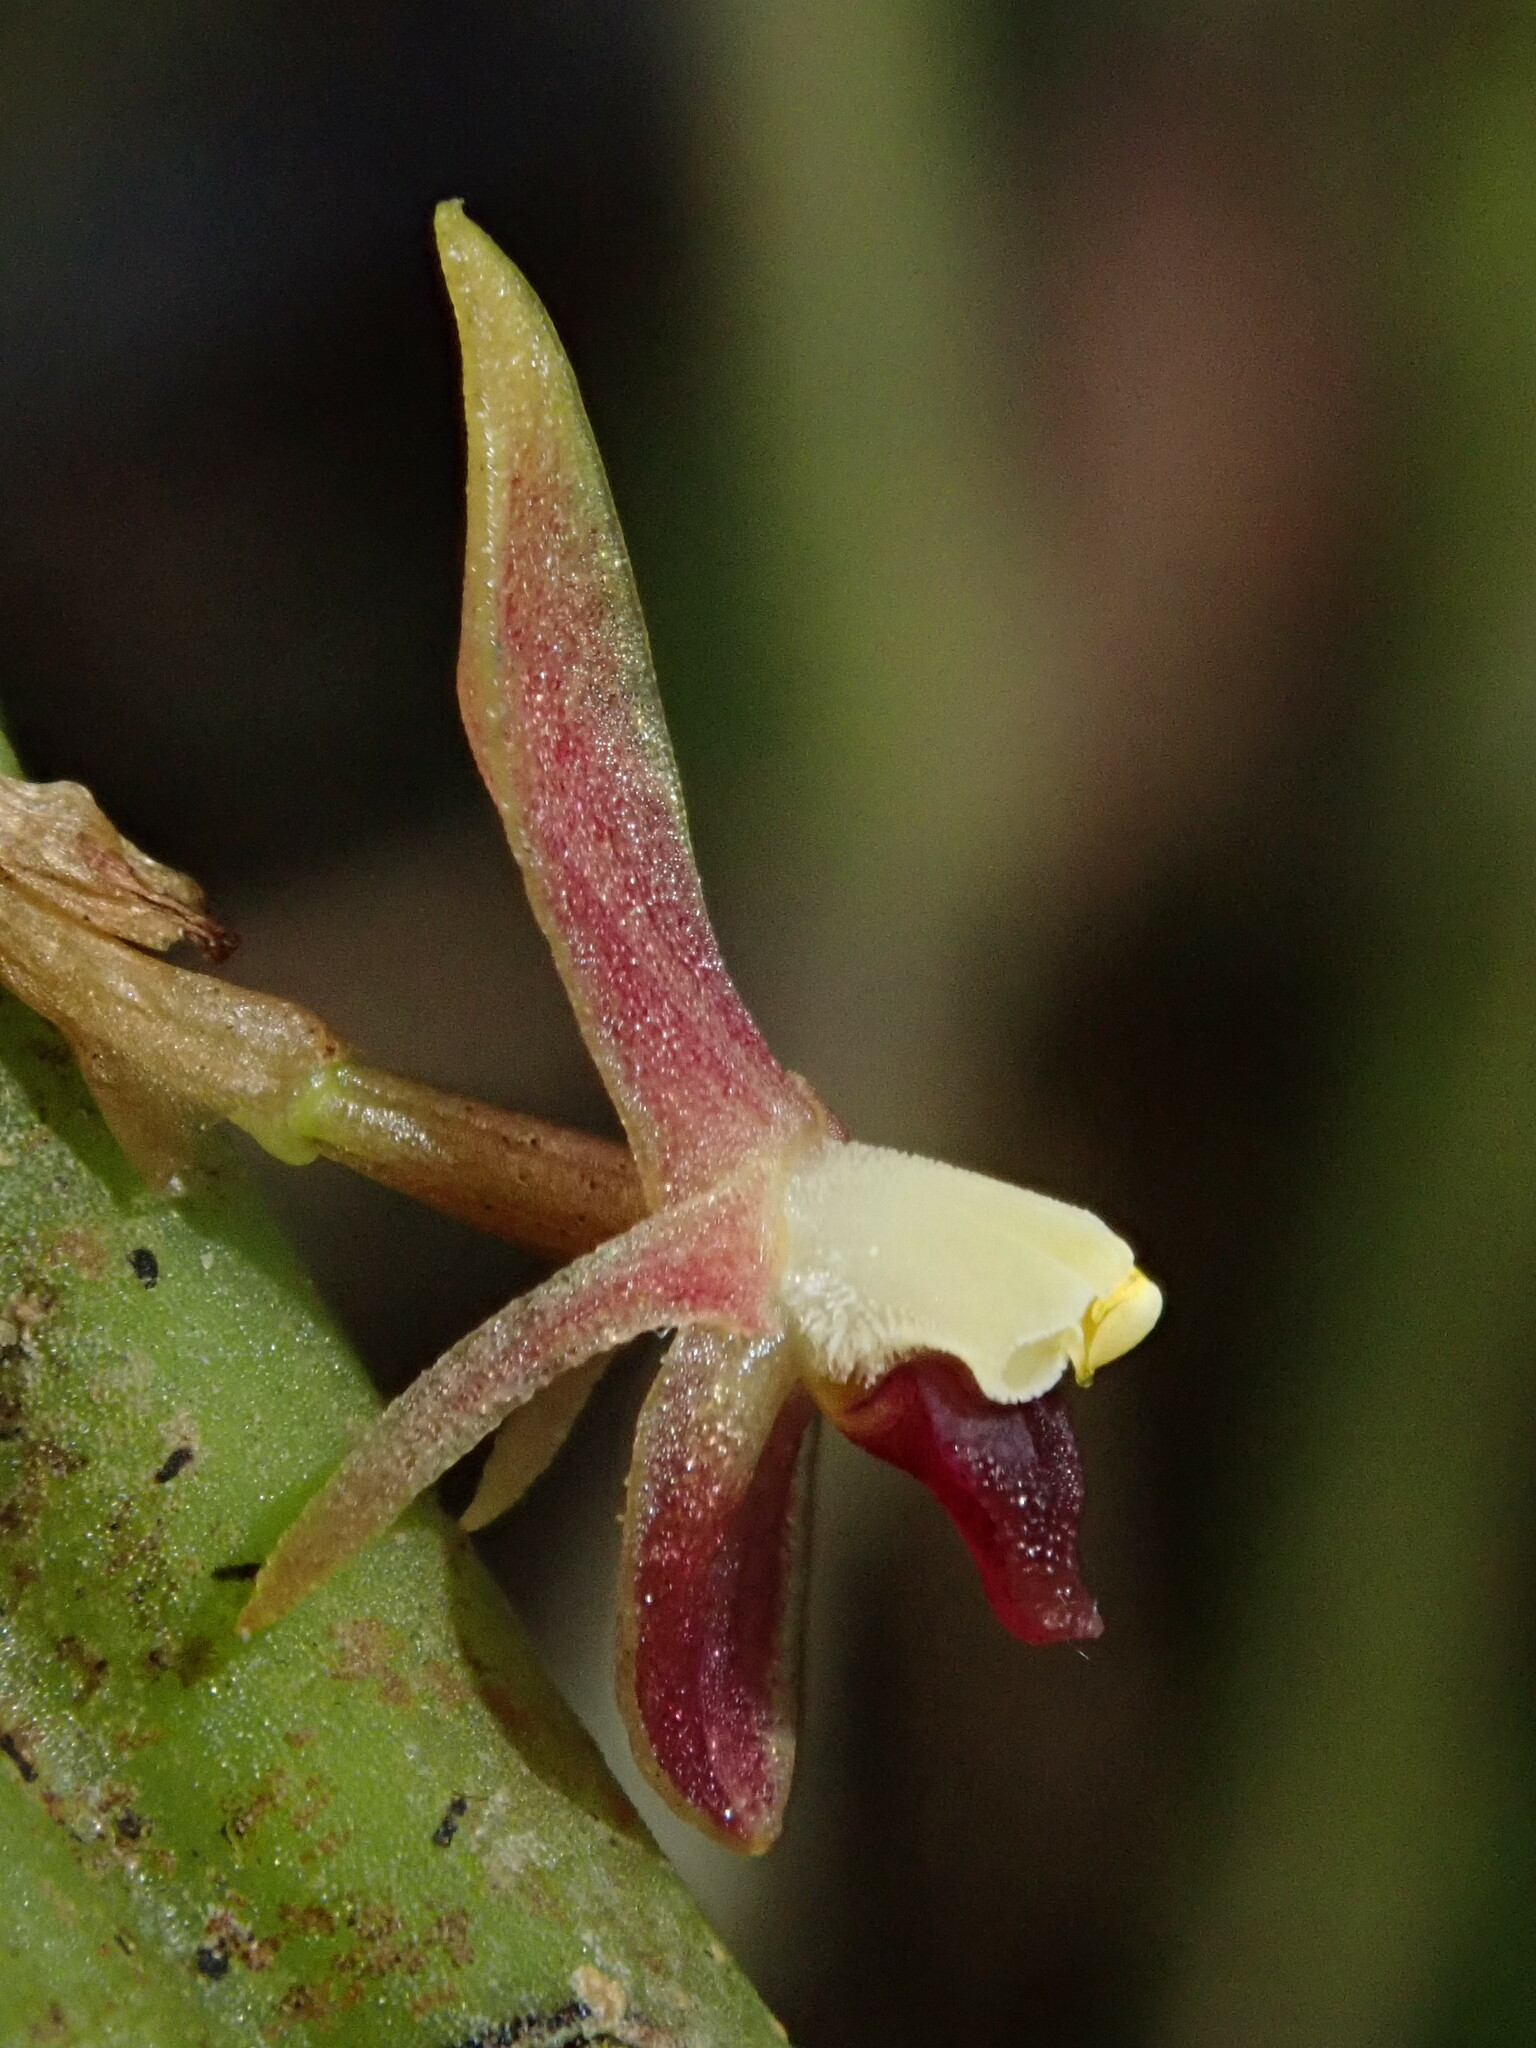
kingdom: Plantae
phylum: Tracheophyta
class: Liliopsida
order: Asparagales
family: Orchidaceae
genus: Pleurothallis
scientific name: Pleurothallis portillae
